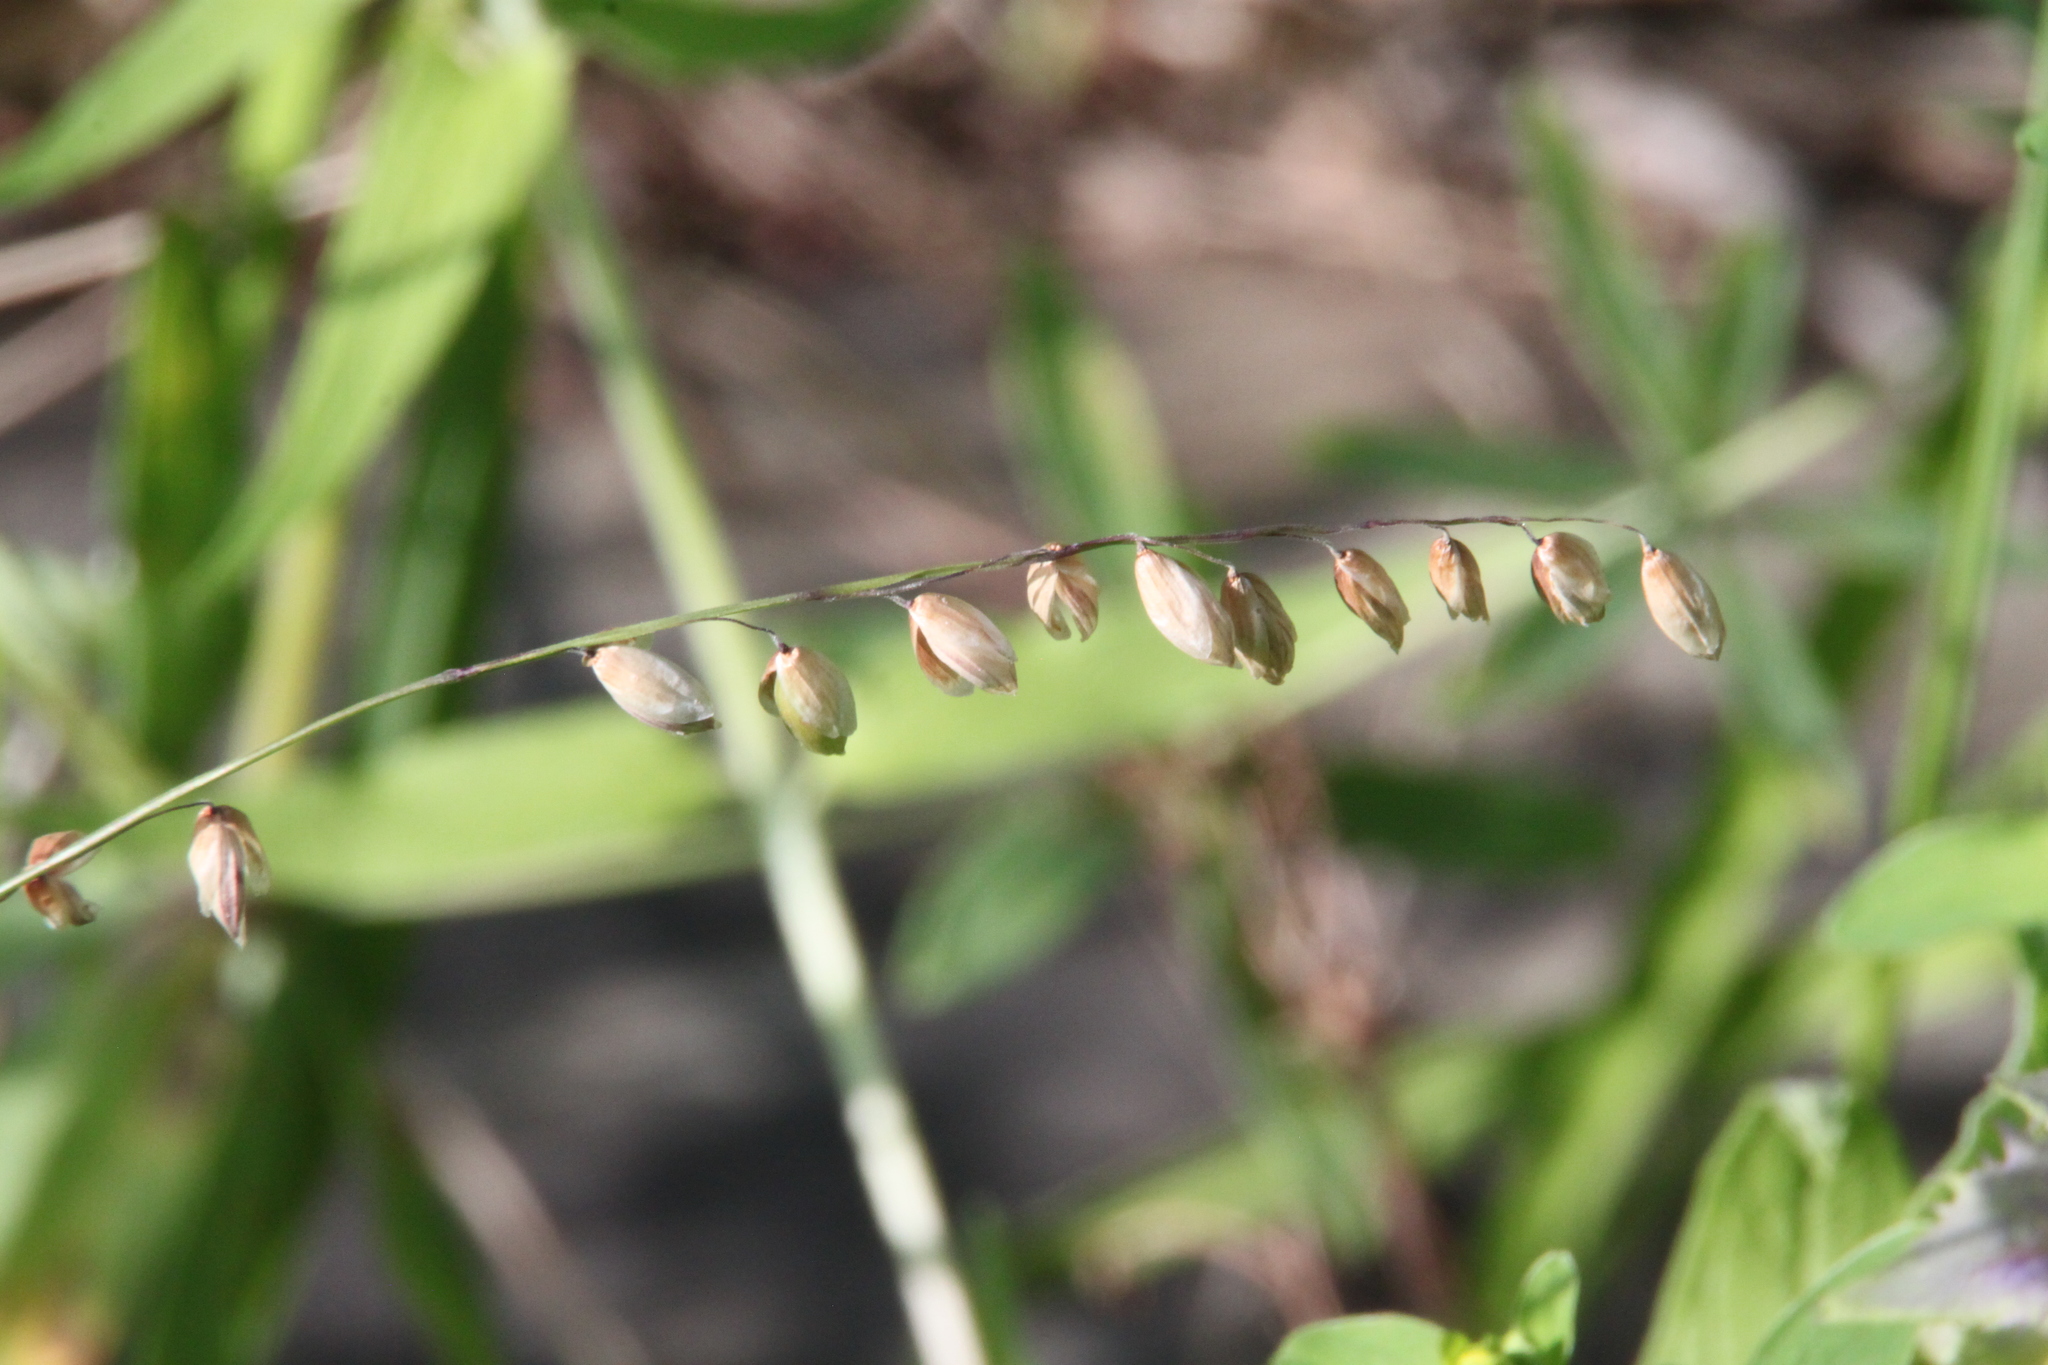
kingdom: Plantae
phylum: Tracheophyta
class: Liliopsida
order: Poales
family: Poaceae
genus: Melica
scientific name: Melica nutans
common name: Mountain melick
